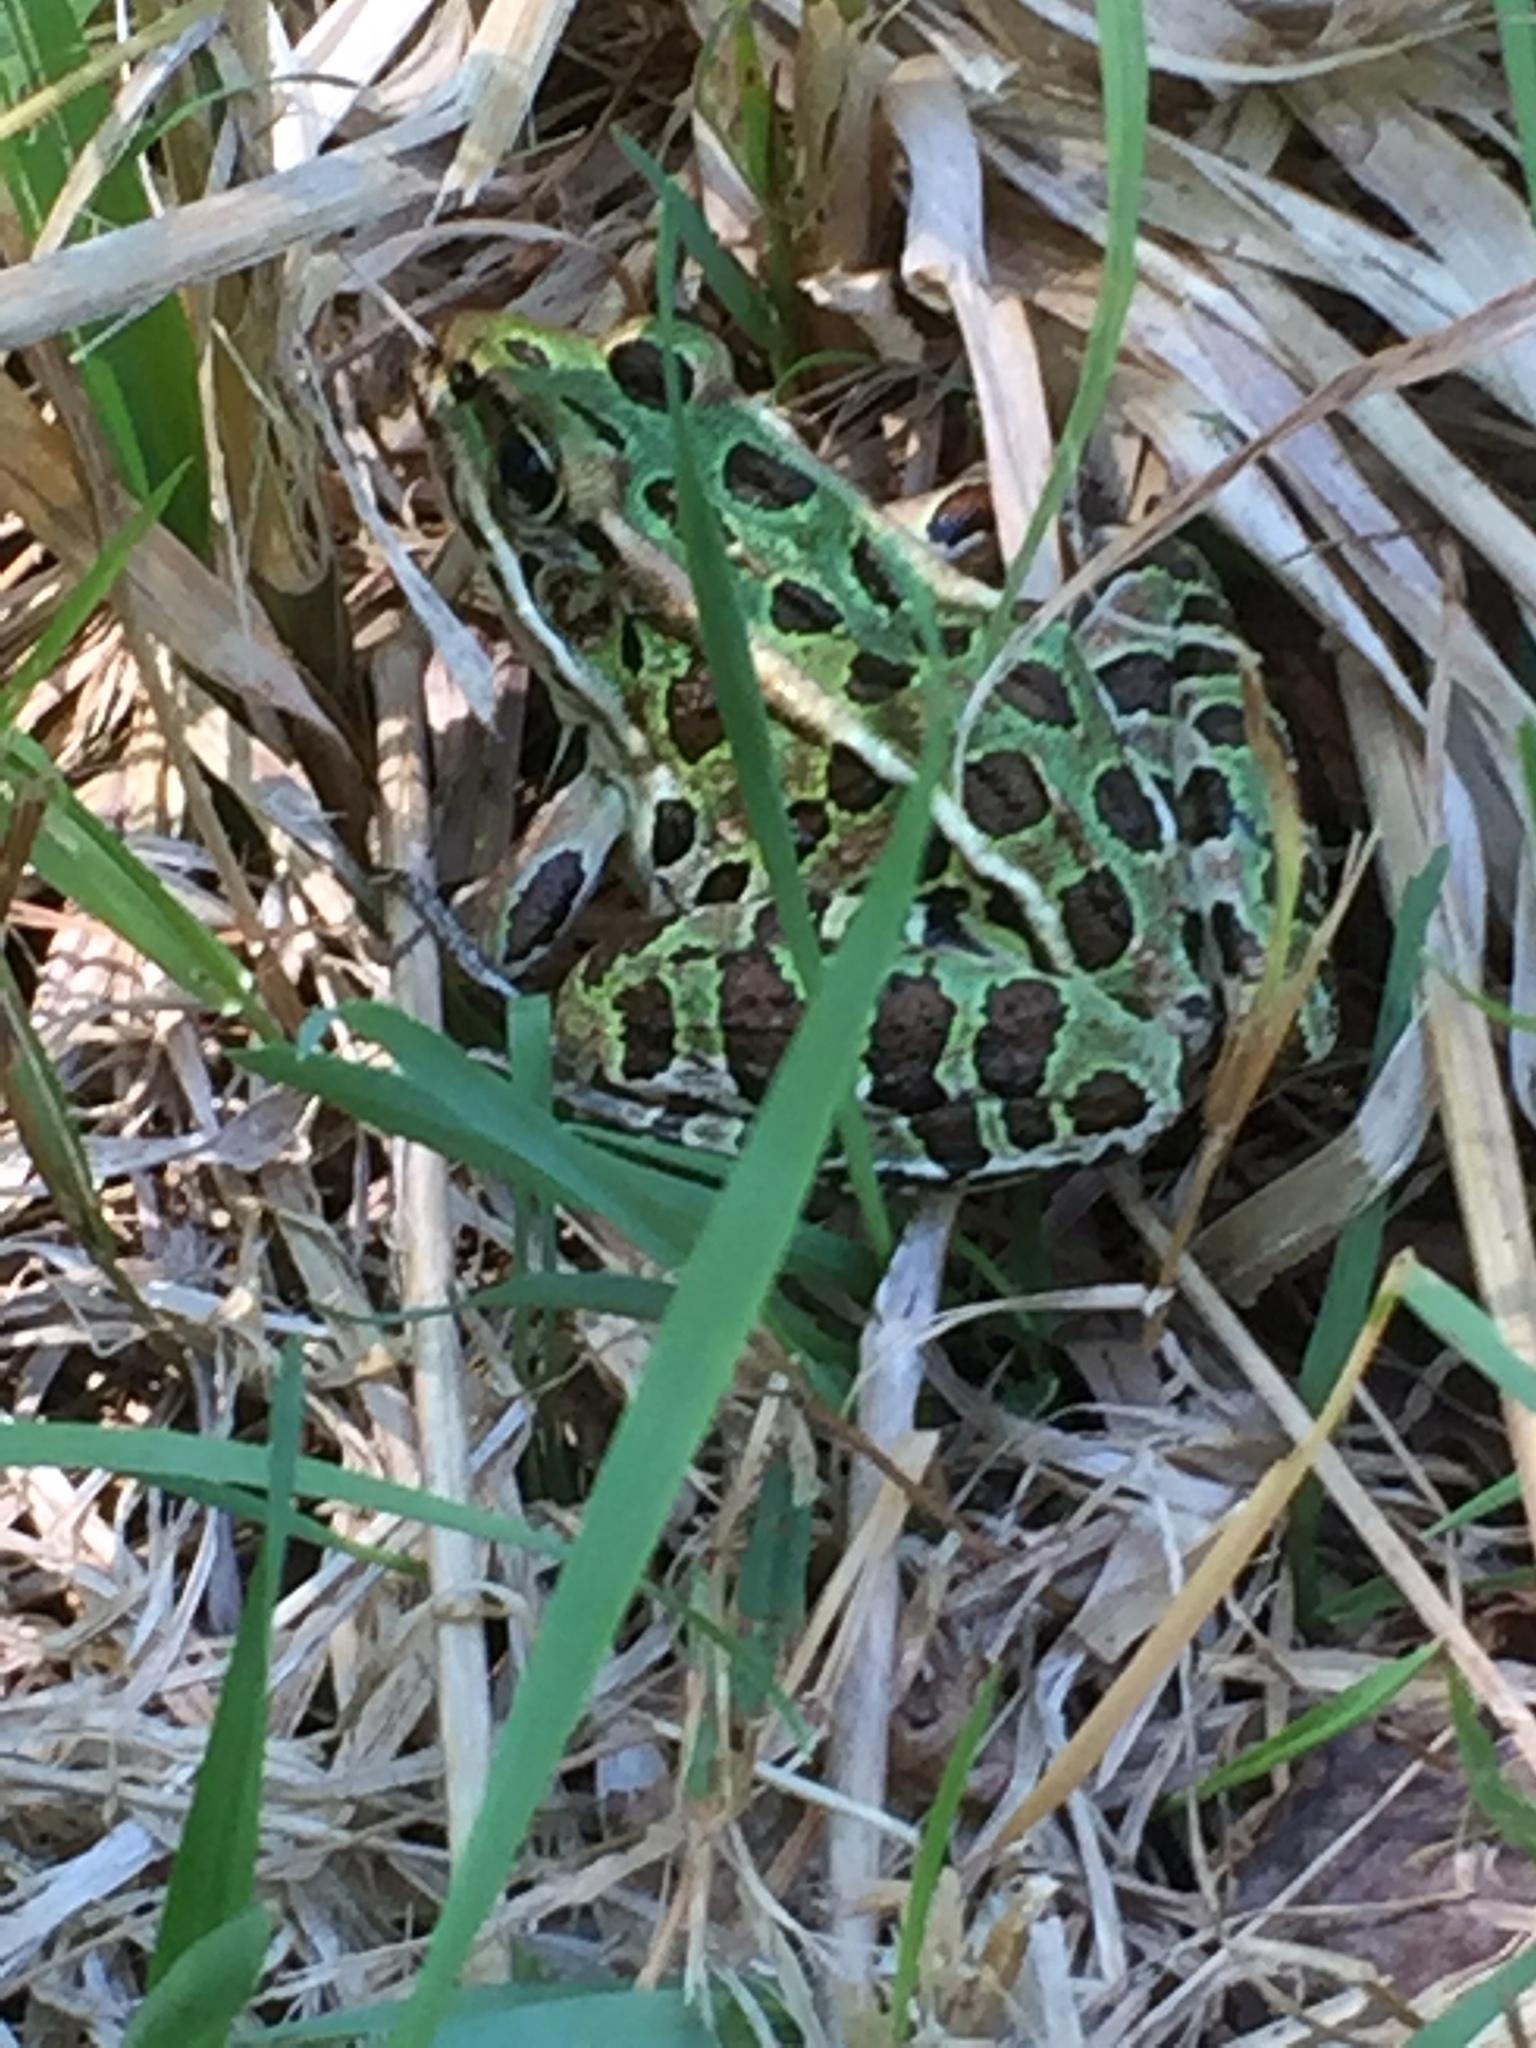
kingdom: Animalia
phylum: Chordata
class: Amphibia
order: Anura
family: Ranidae
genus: Lithobates
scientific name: Lithobates pipiens
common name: Northern leopard frog
